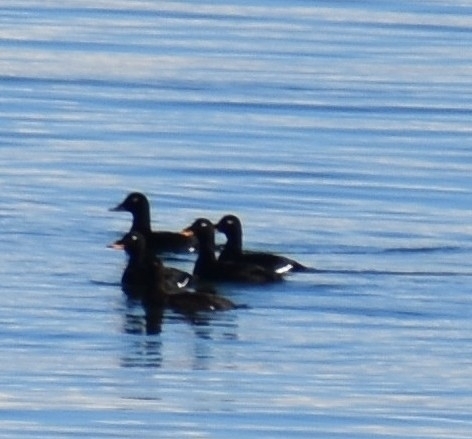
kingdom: Animalia
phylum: Chordata
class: Aves
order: Anseriformes
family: Anatidae
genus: Melanitta
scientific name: Melanitta fusca
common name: Velvet scoter
